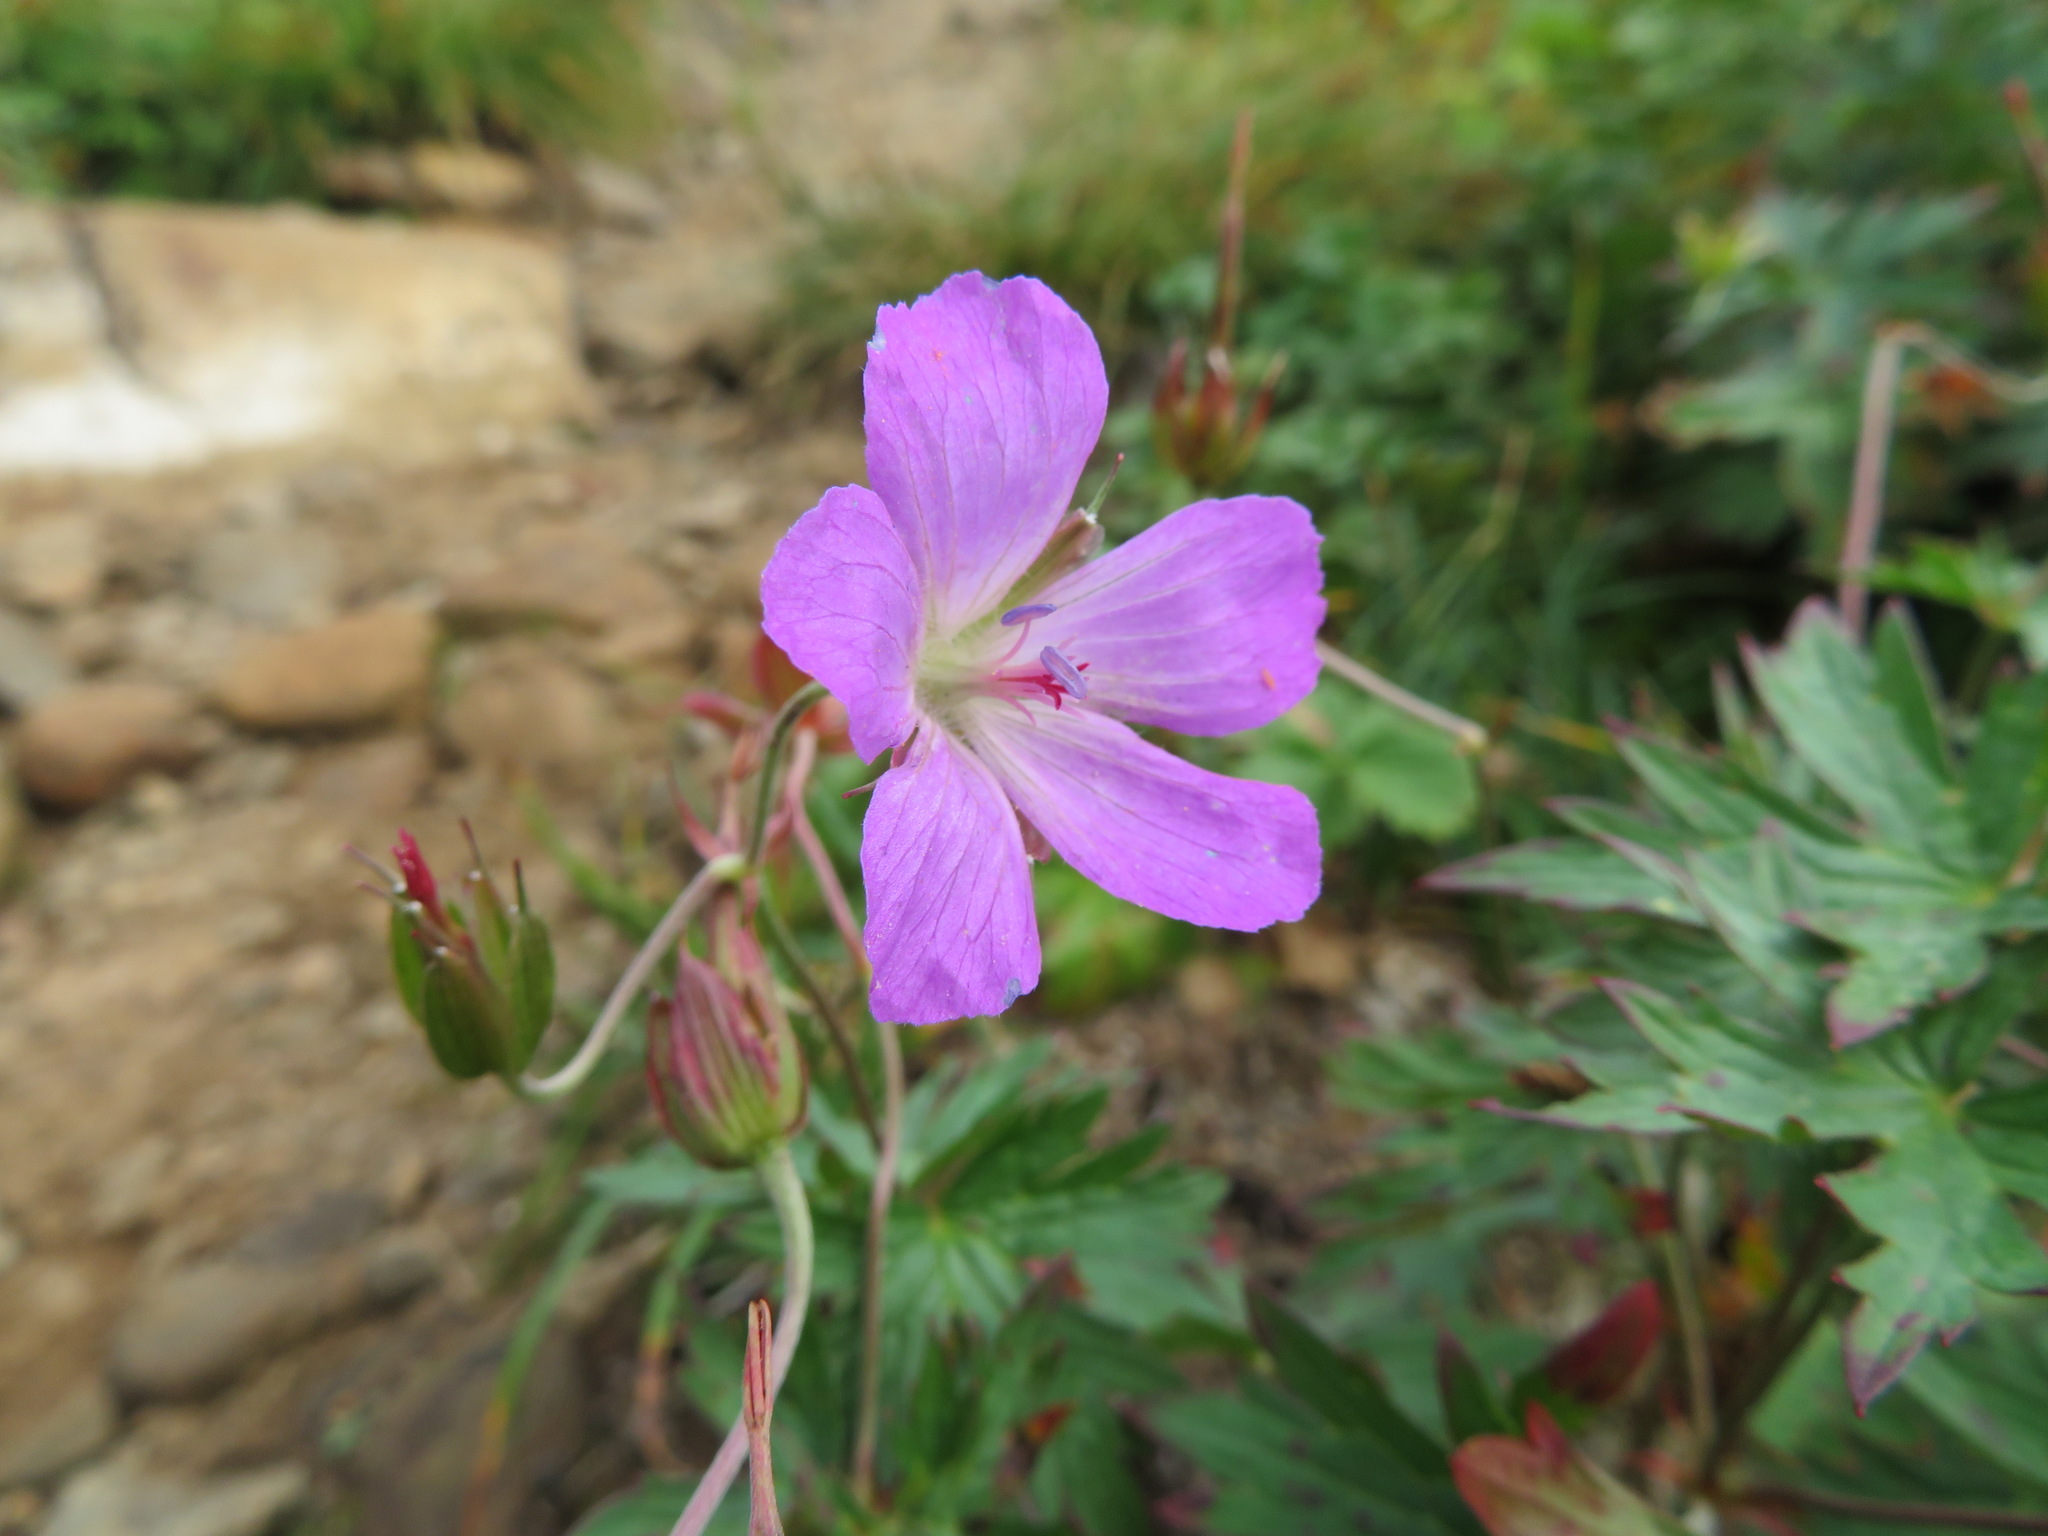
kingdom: Plantae
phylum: Tracheophyta
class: Magnoliopsida
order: Geraniales
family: Geraniaceae
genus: Geranium
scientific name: Geranium yesoense
